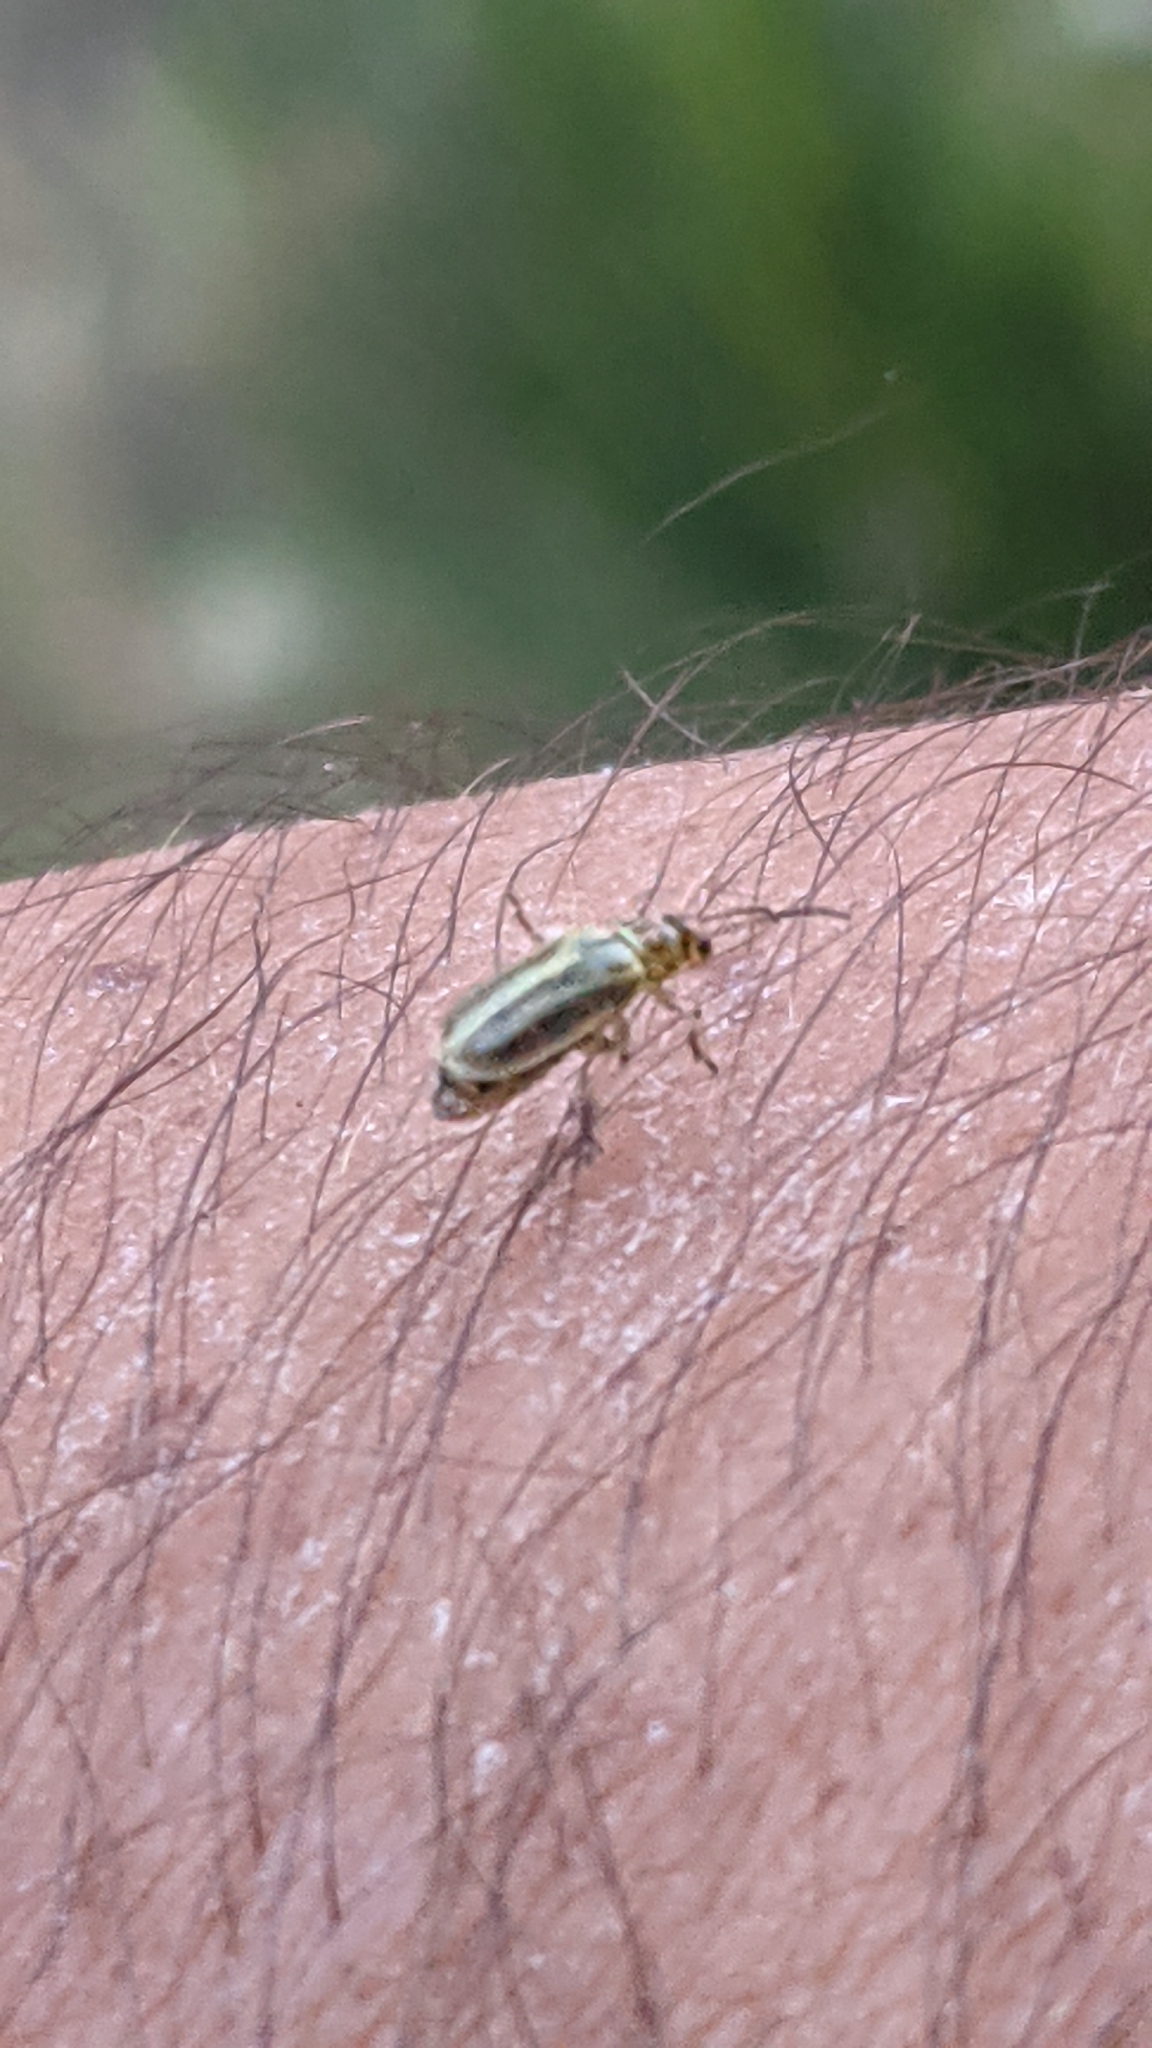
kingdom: Animalia
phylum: Arthropoda
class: Insecta
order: Coleoptera
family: Chrysomelidae
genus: Diorhabda
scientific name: Diorhabda carinulata
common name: Tamarisk leaf beetle
